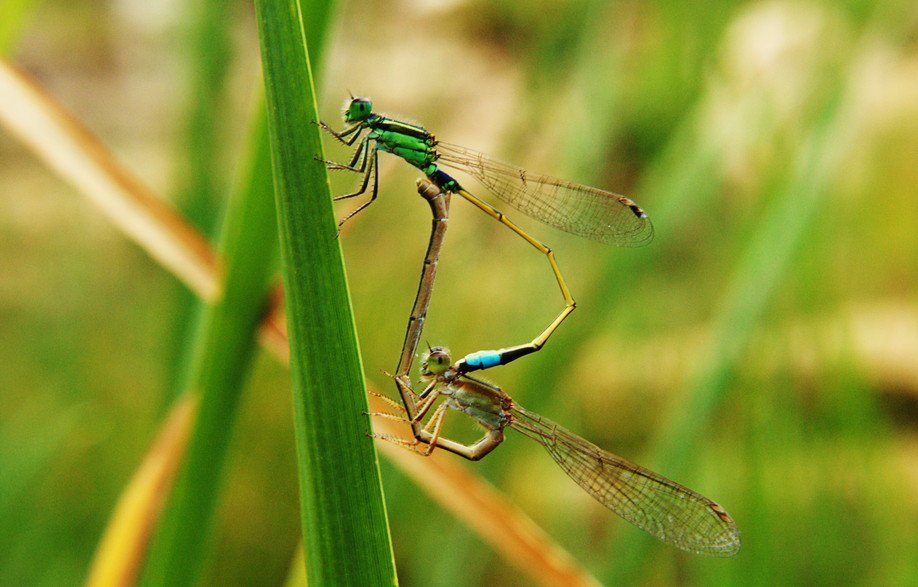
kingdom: Animalia
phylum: Arthropoda
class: Insecta
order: Odonata
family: Coenagrionidae
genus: Ischnura
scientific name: Ischnura senegalensis
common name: Tropical bluetail
